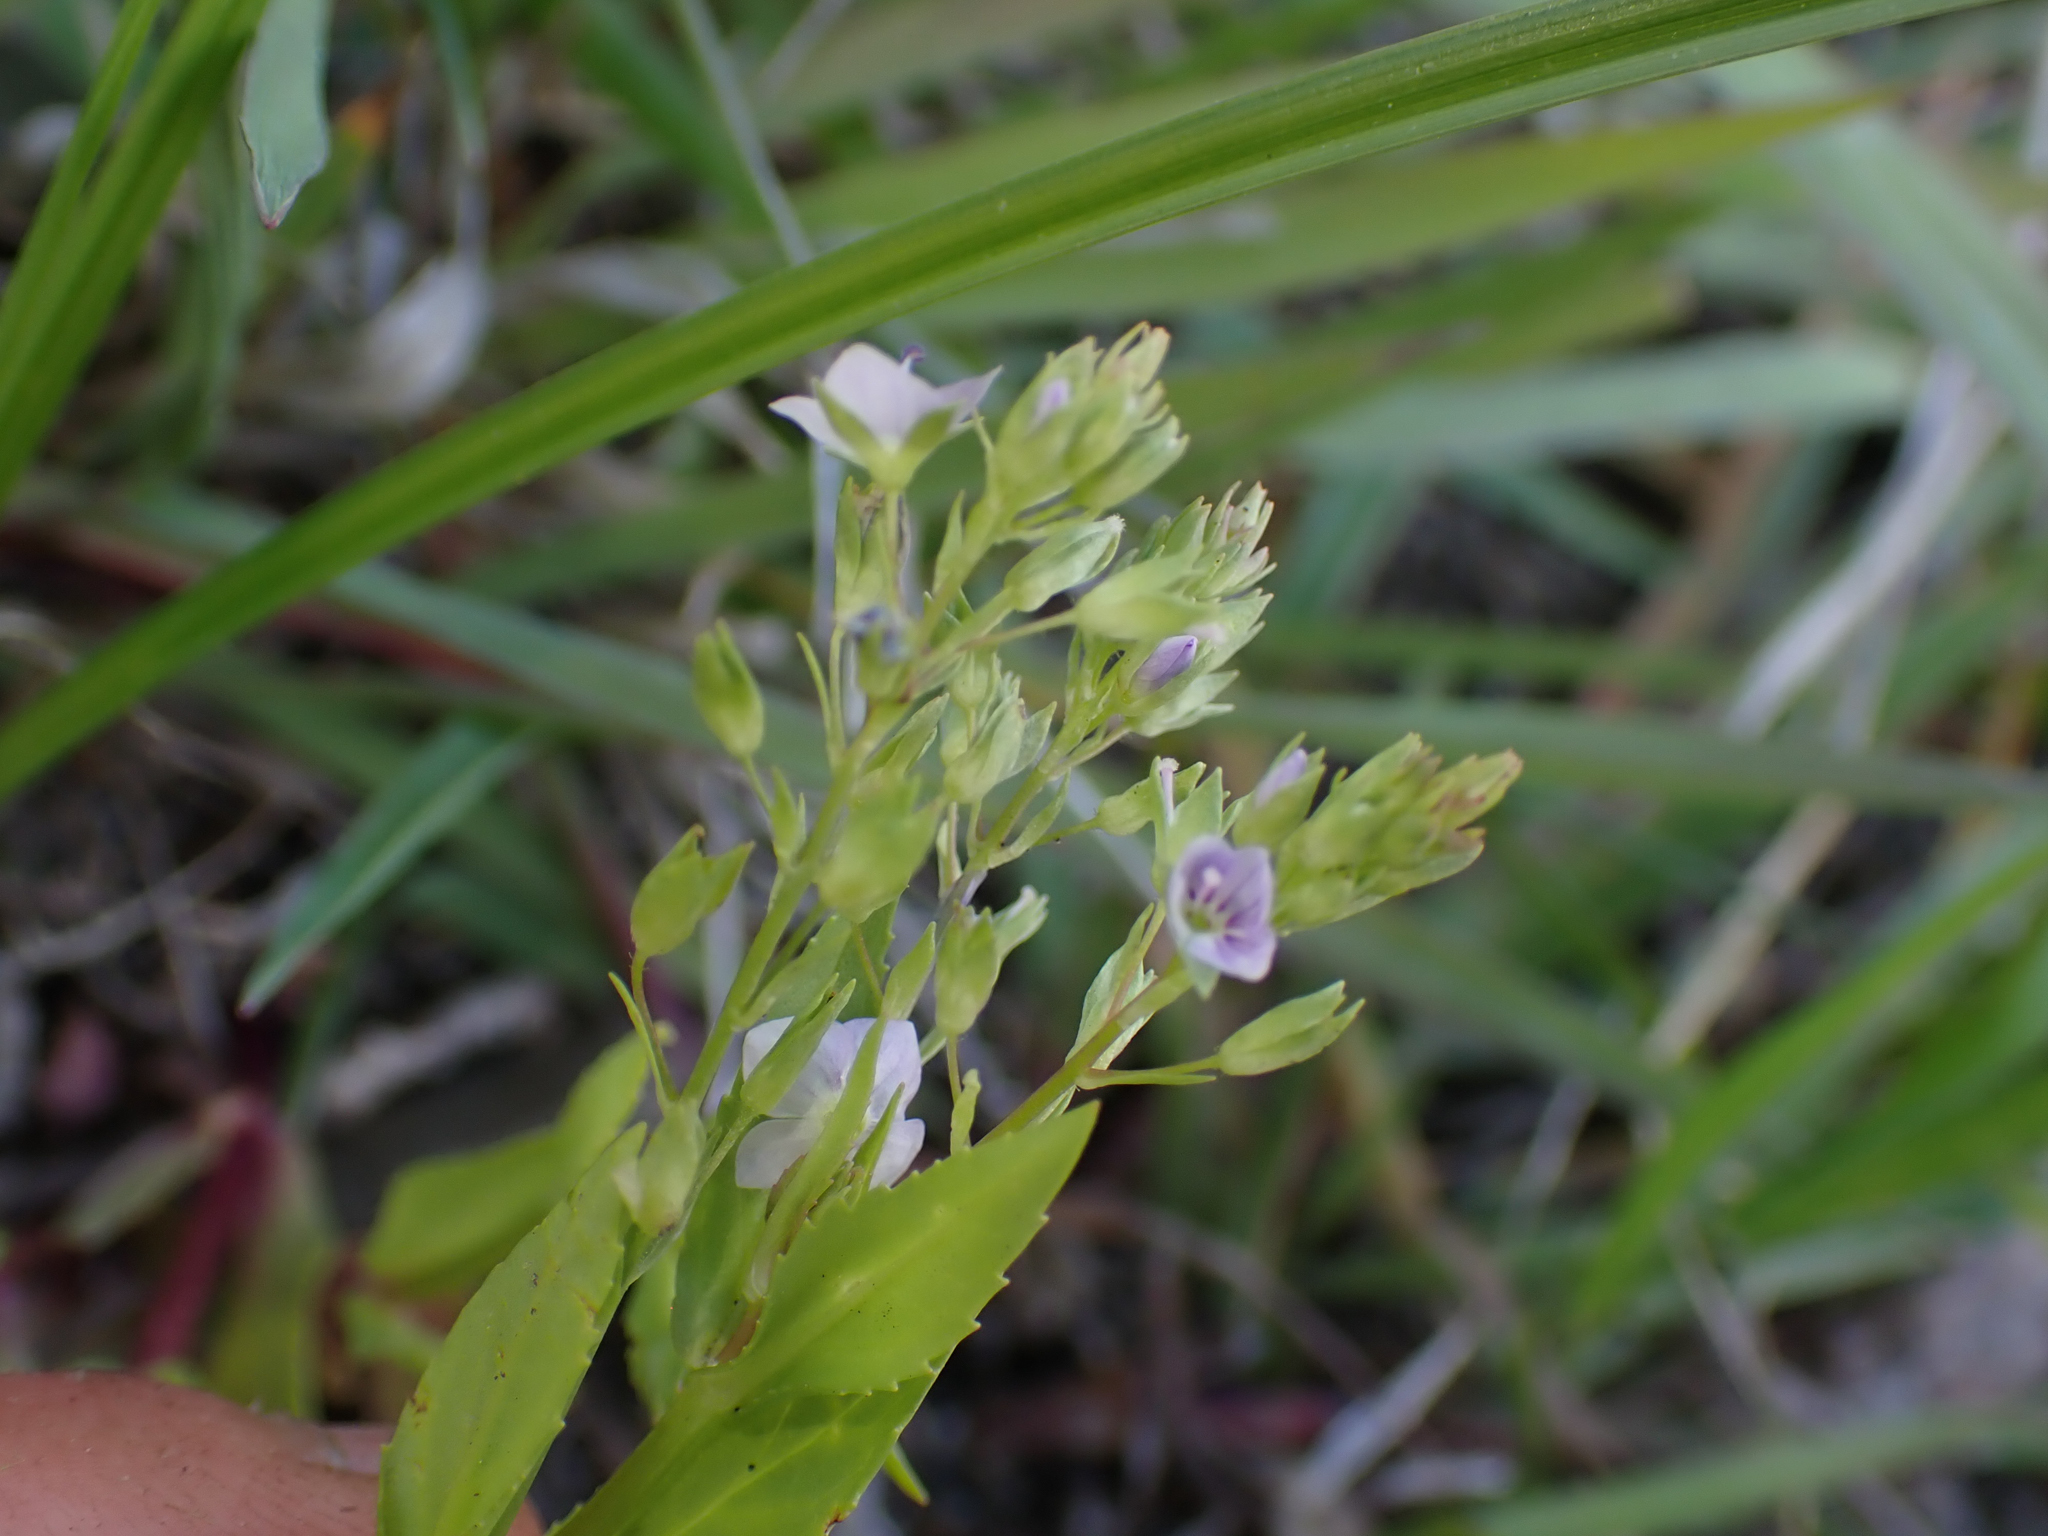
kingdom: Plantae
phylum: Tracheophyta
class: Magnoliopsida
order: Lamiales
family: Plantaginaceae
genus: Veronica
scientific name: Veronica anagallis-aquatica
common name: Water speedwell
